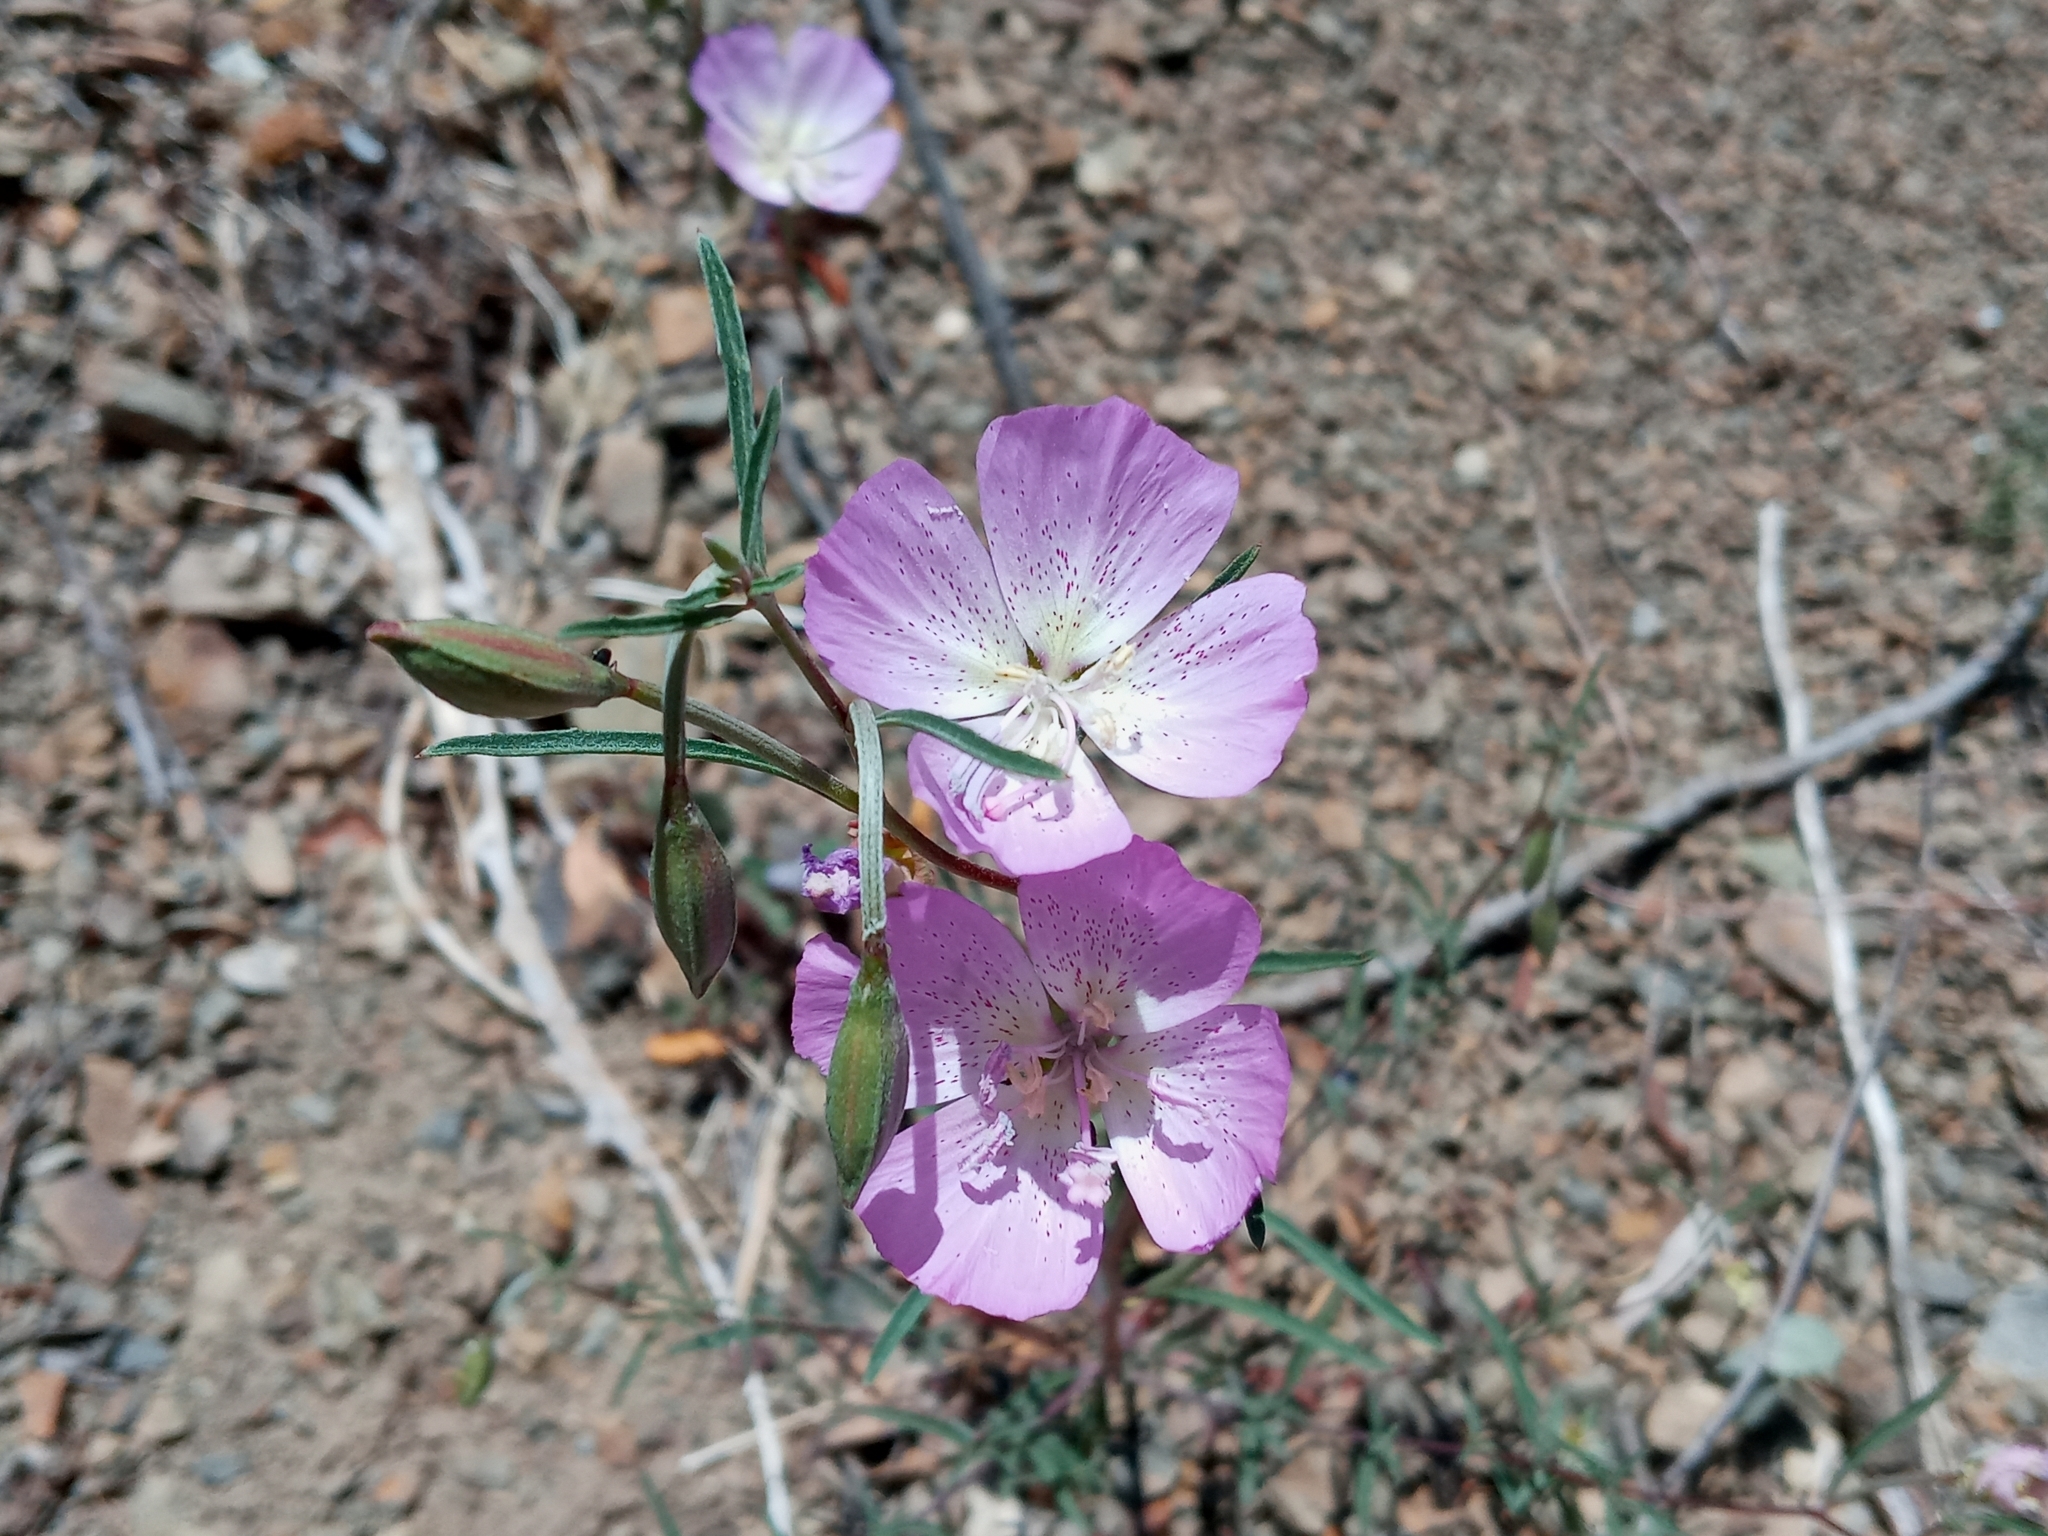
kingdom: Plantae
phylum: Tracheophyta
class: Magnoliopsida
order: Myrtales
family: Onagraceae
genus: Clarkia
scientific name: Clarkia bottae
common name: Punch-bowl godetia
